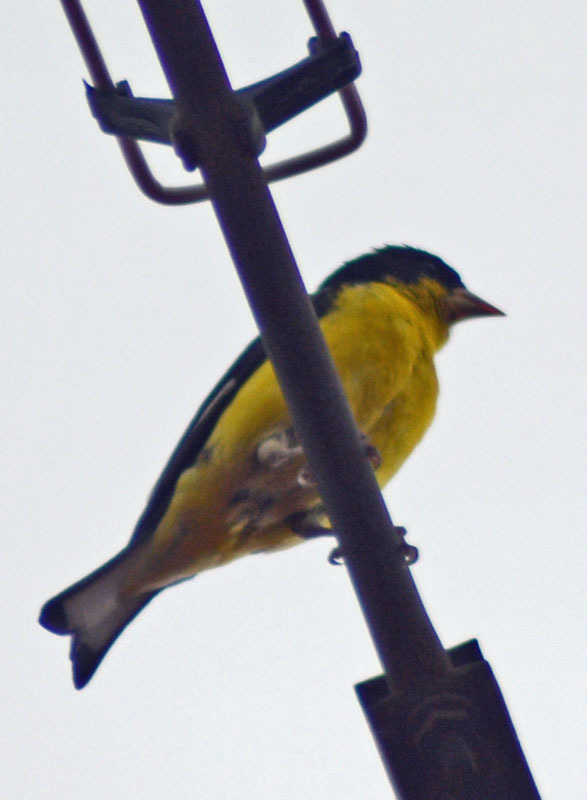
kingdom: Animalia
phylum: Chordata
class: Aves
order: Passeriformes
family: Fringillidae
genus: Spinus
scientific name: Spinus psaltria
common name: Lesser goldfinch
